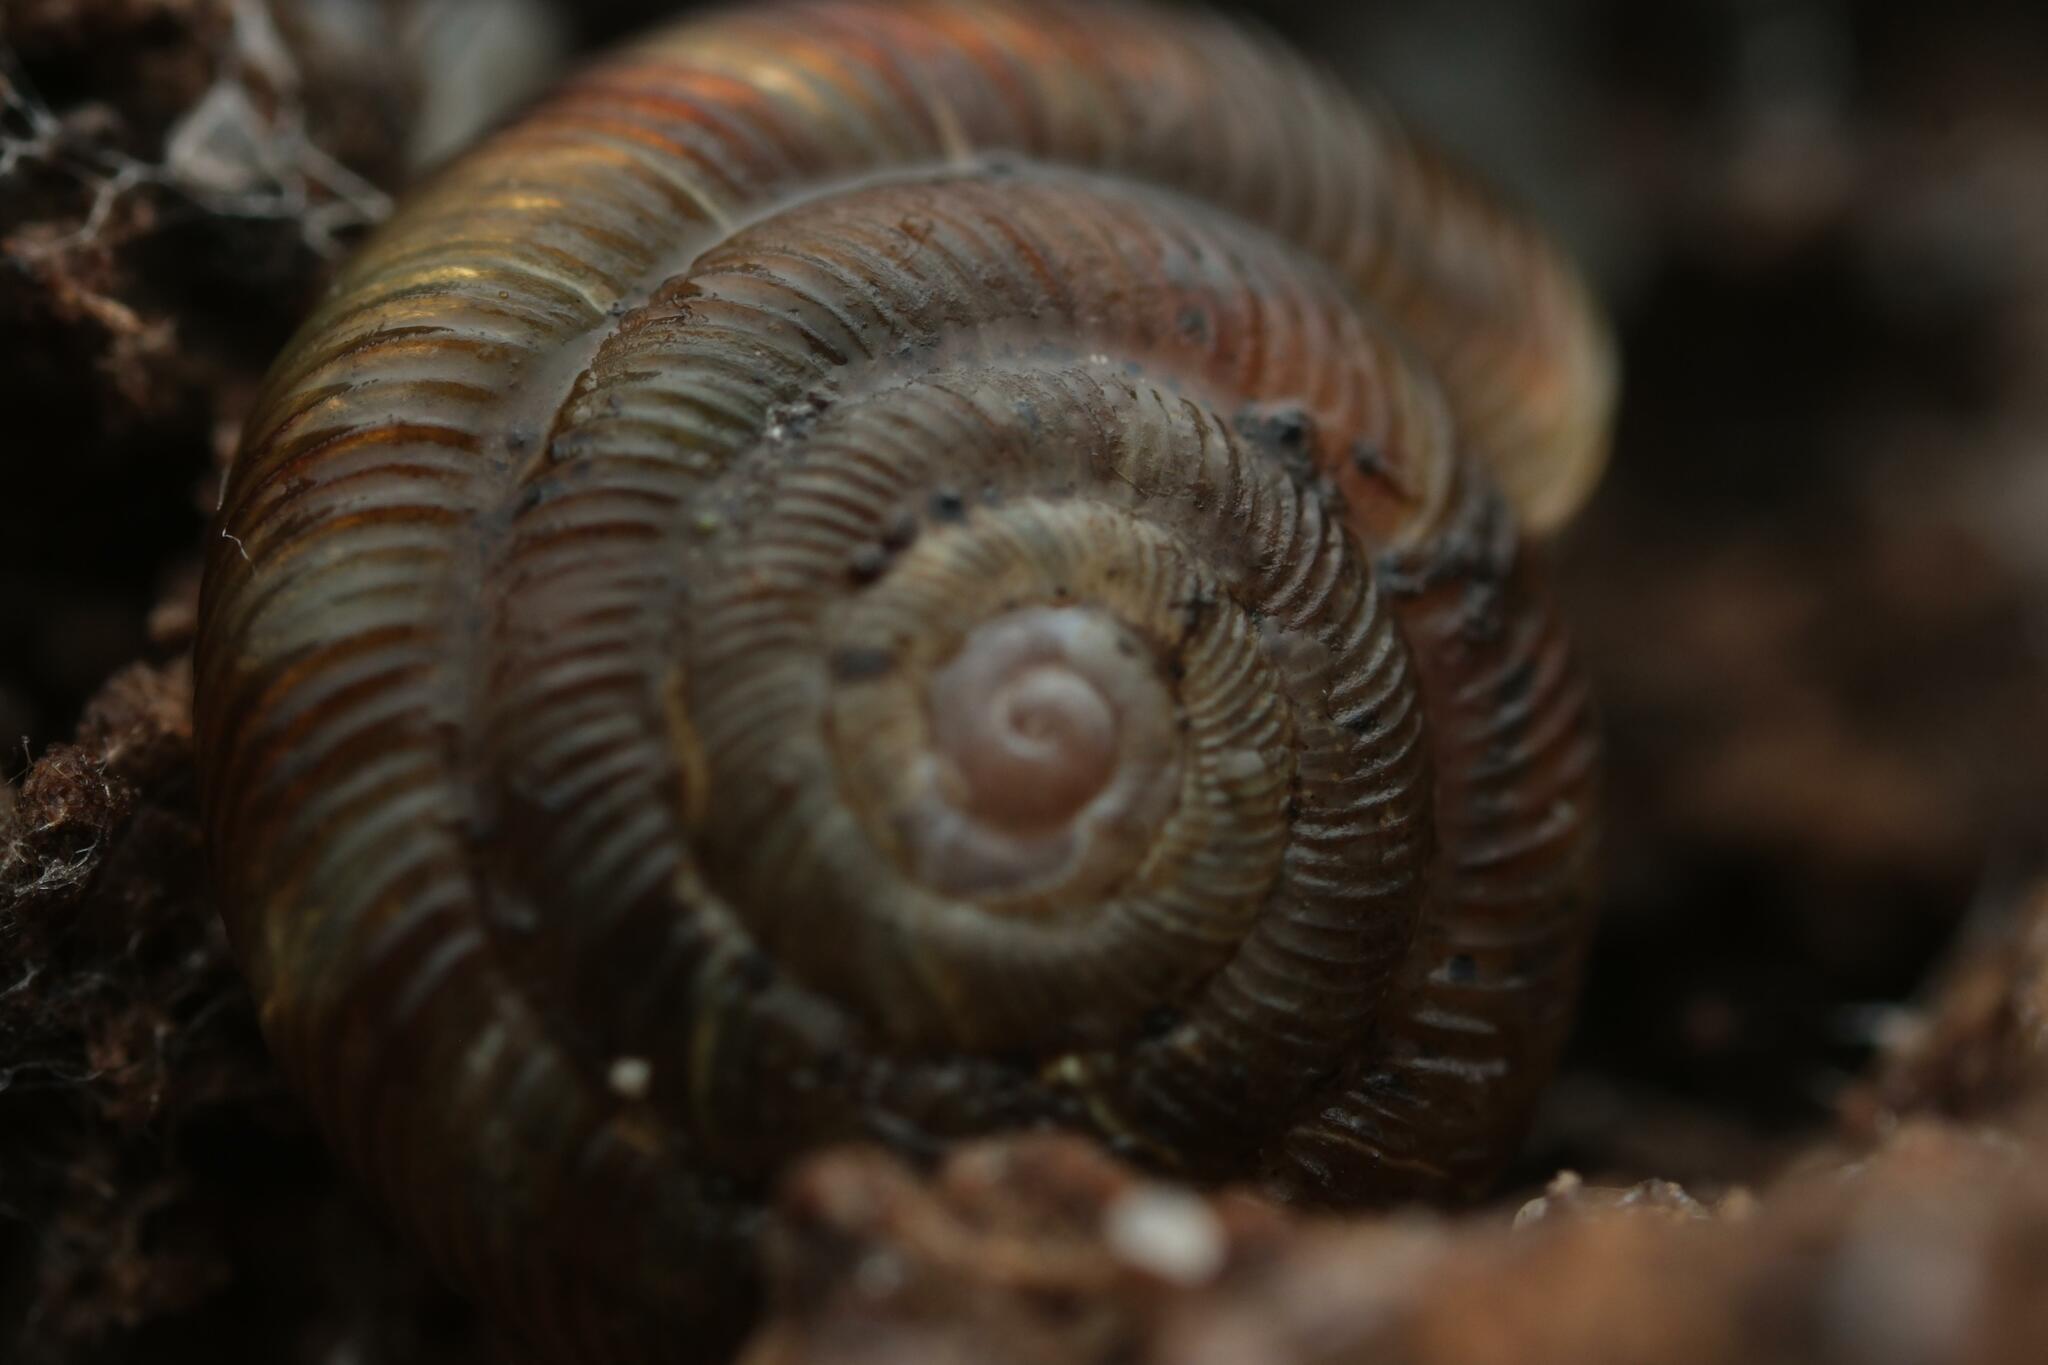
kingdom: Animalia
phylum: Mollusca
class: Gastropoda
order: Stylommatophora
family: Discidae
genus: Discus
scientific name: Discus rotundatus
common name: Rounded snail
